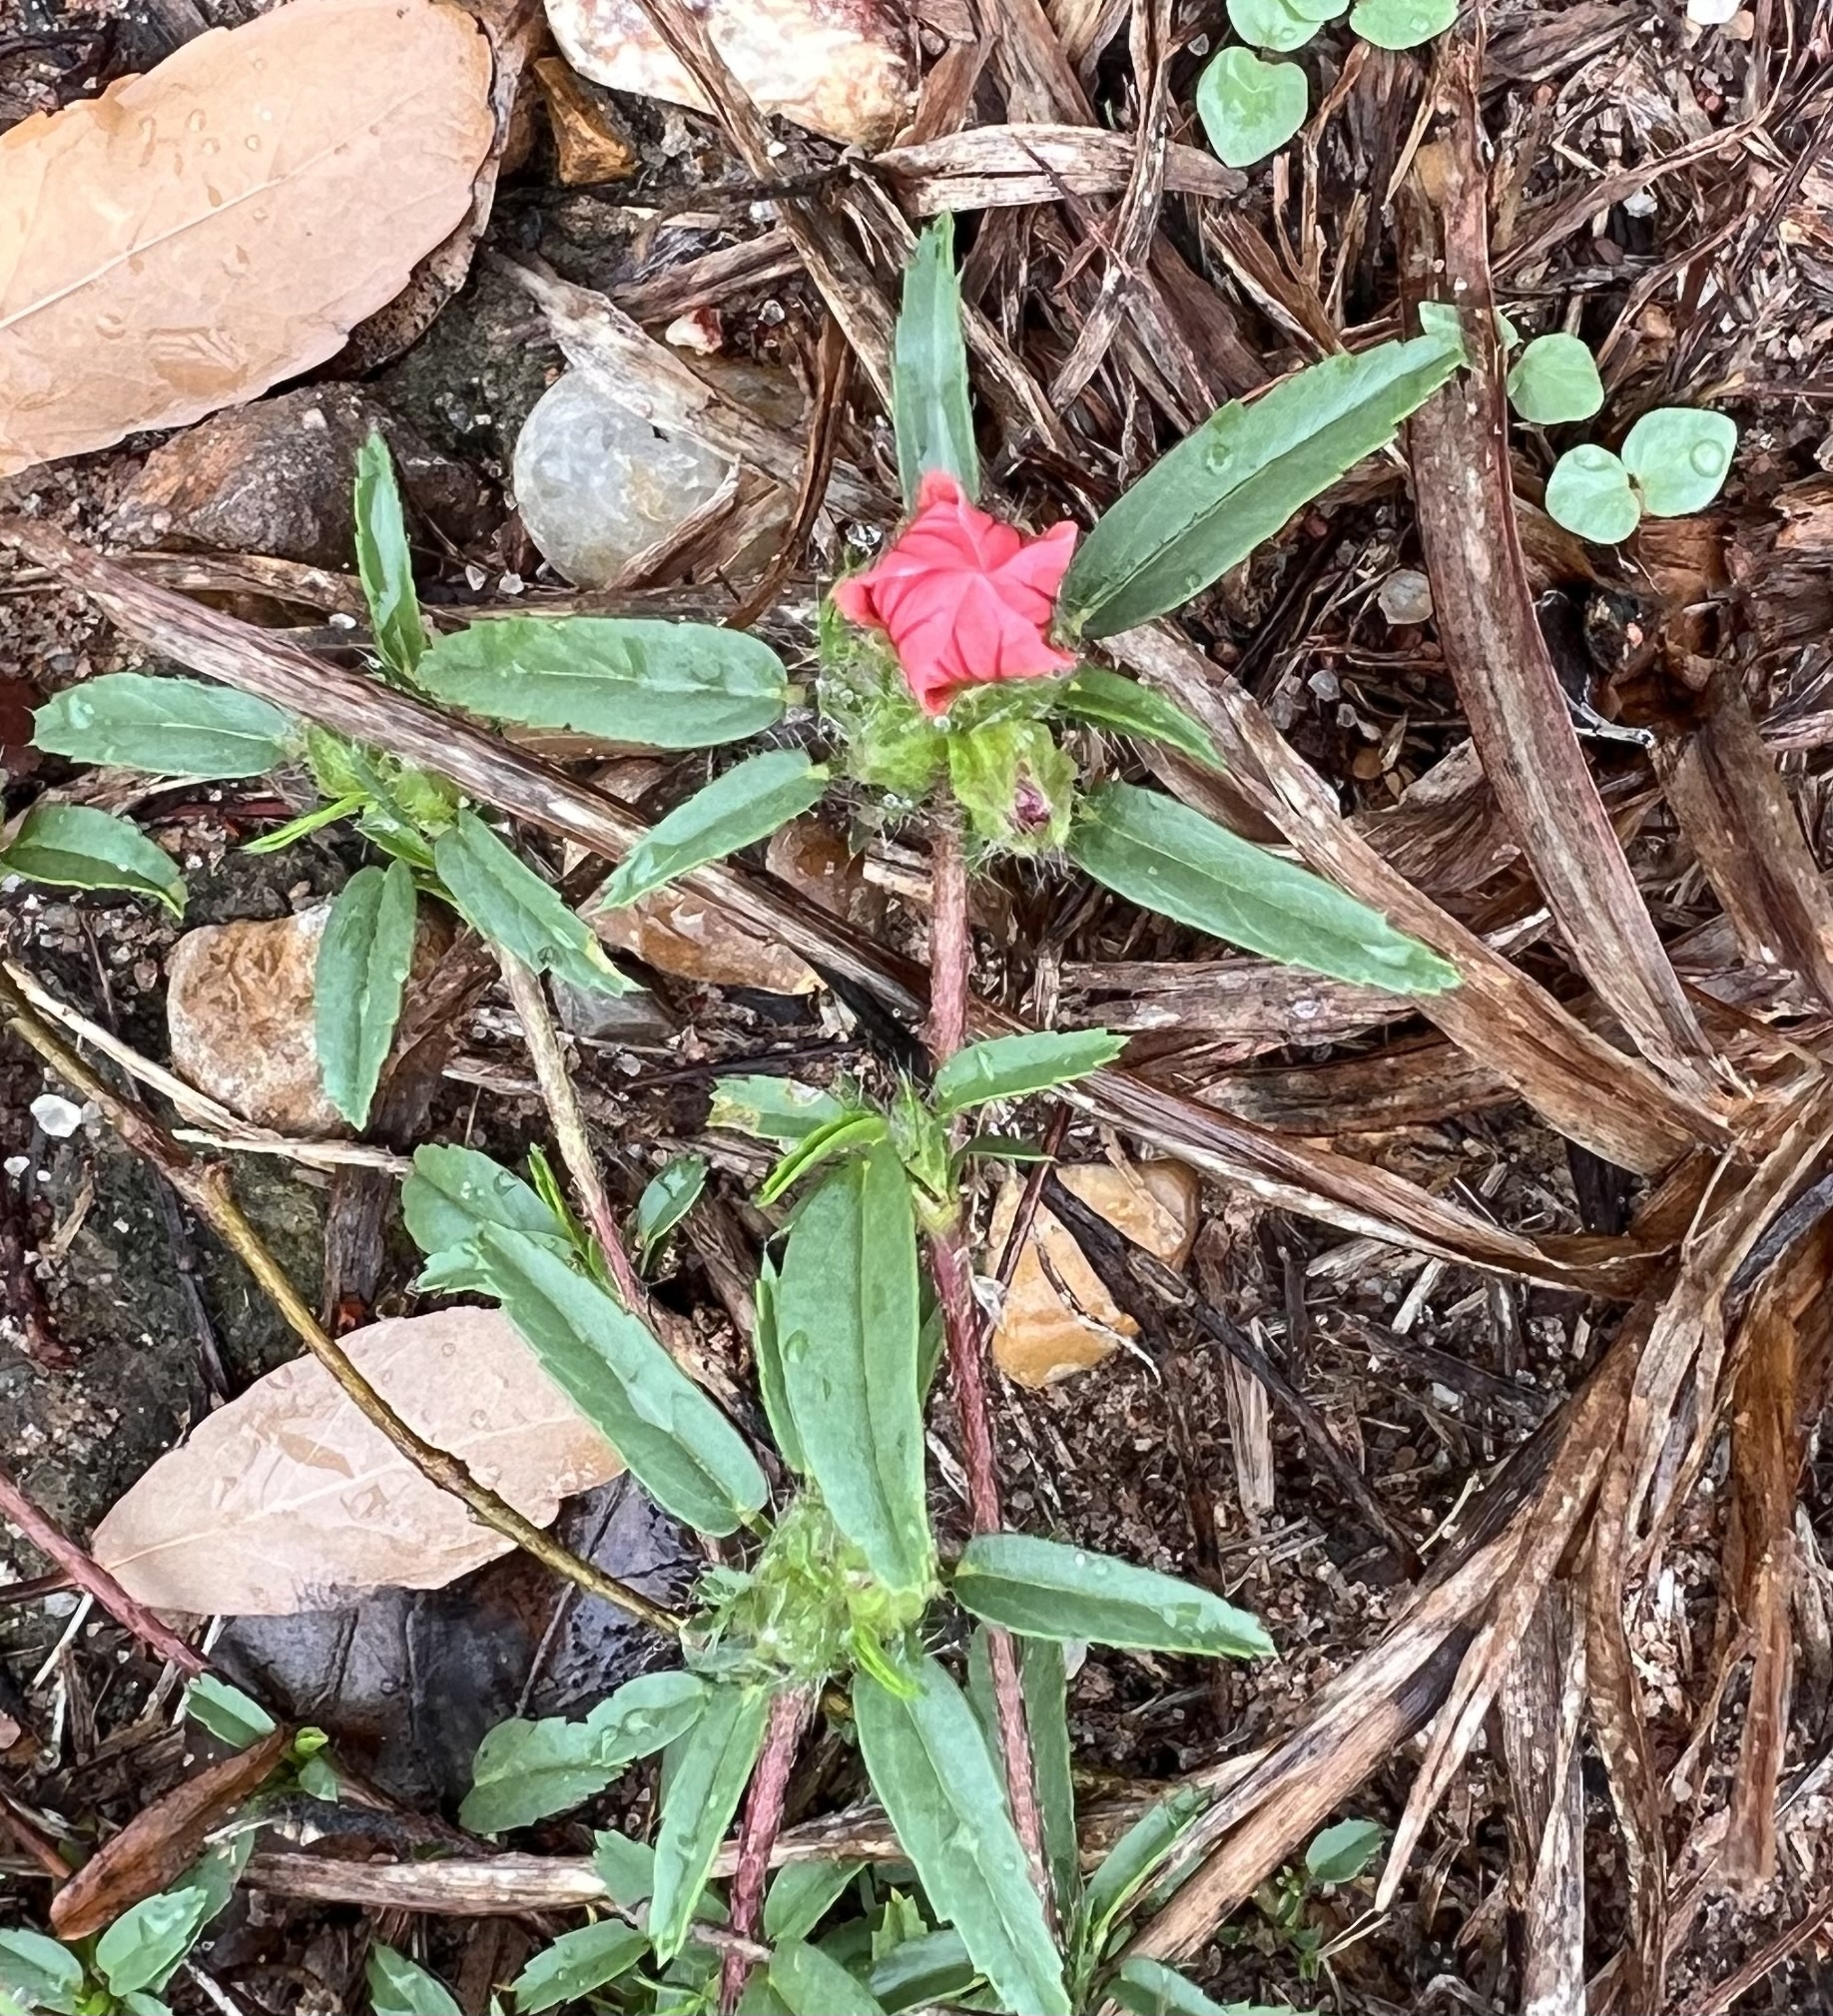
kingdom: Plantae
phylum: Tracheophyta
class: Magnoliopsida
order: Malvales
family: Malvaceae
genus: Sida
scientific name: Sida ciliaris
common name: Bracted fanpetals
